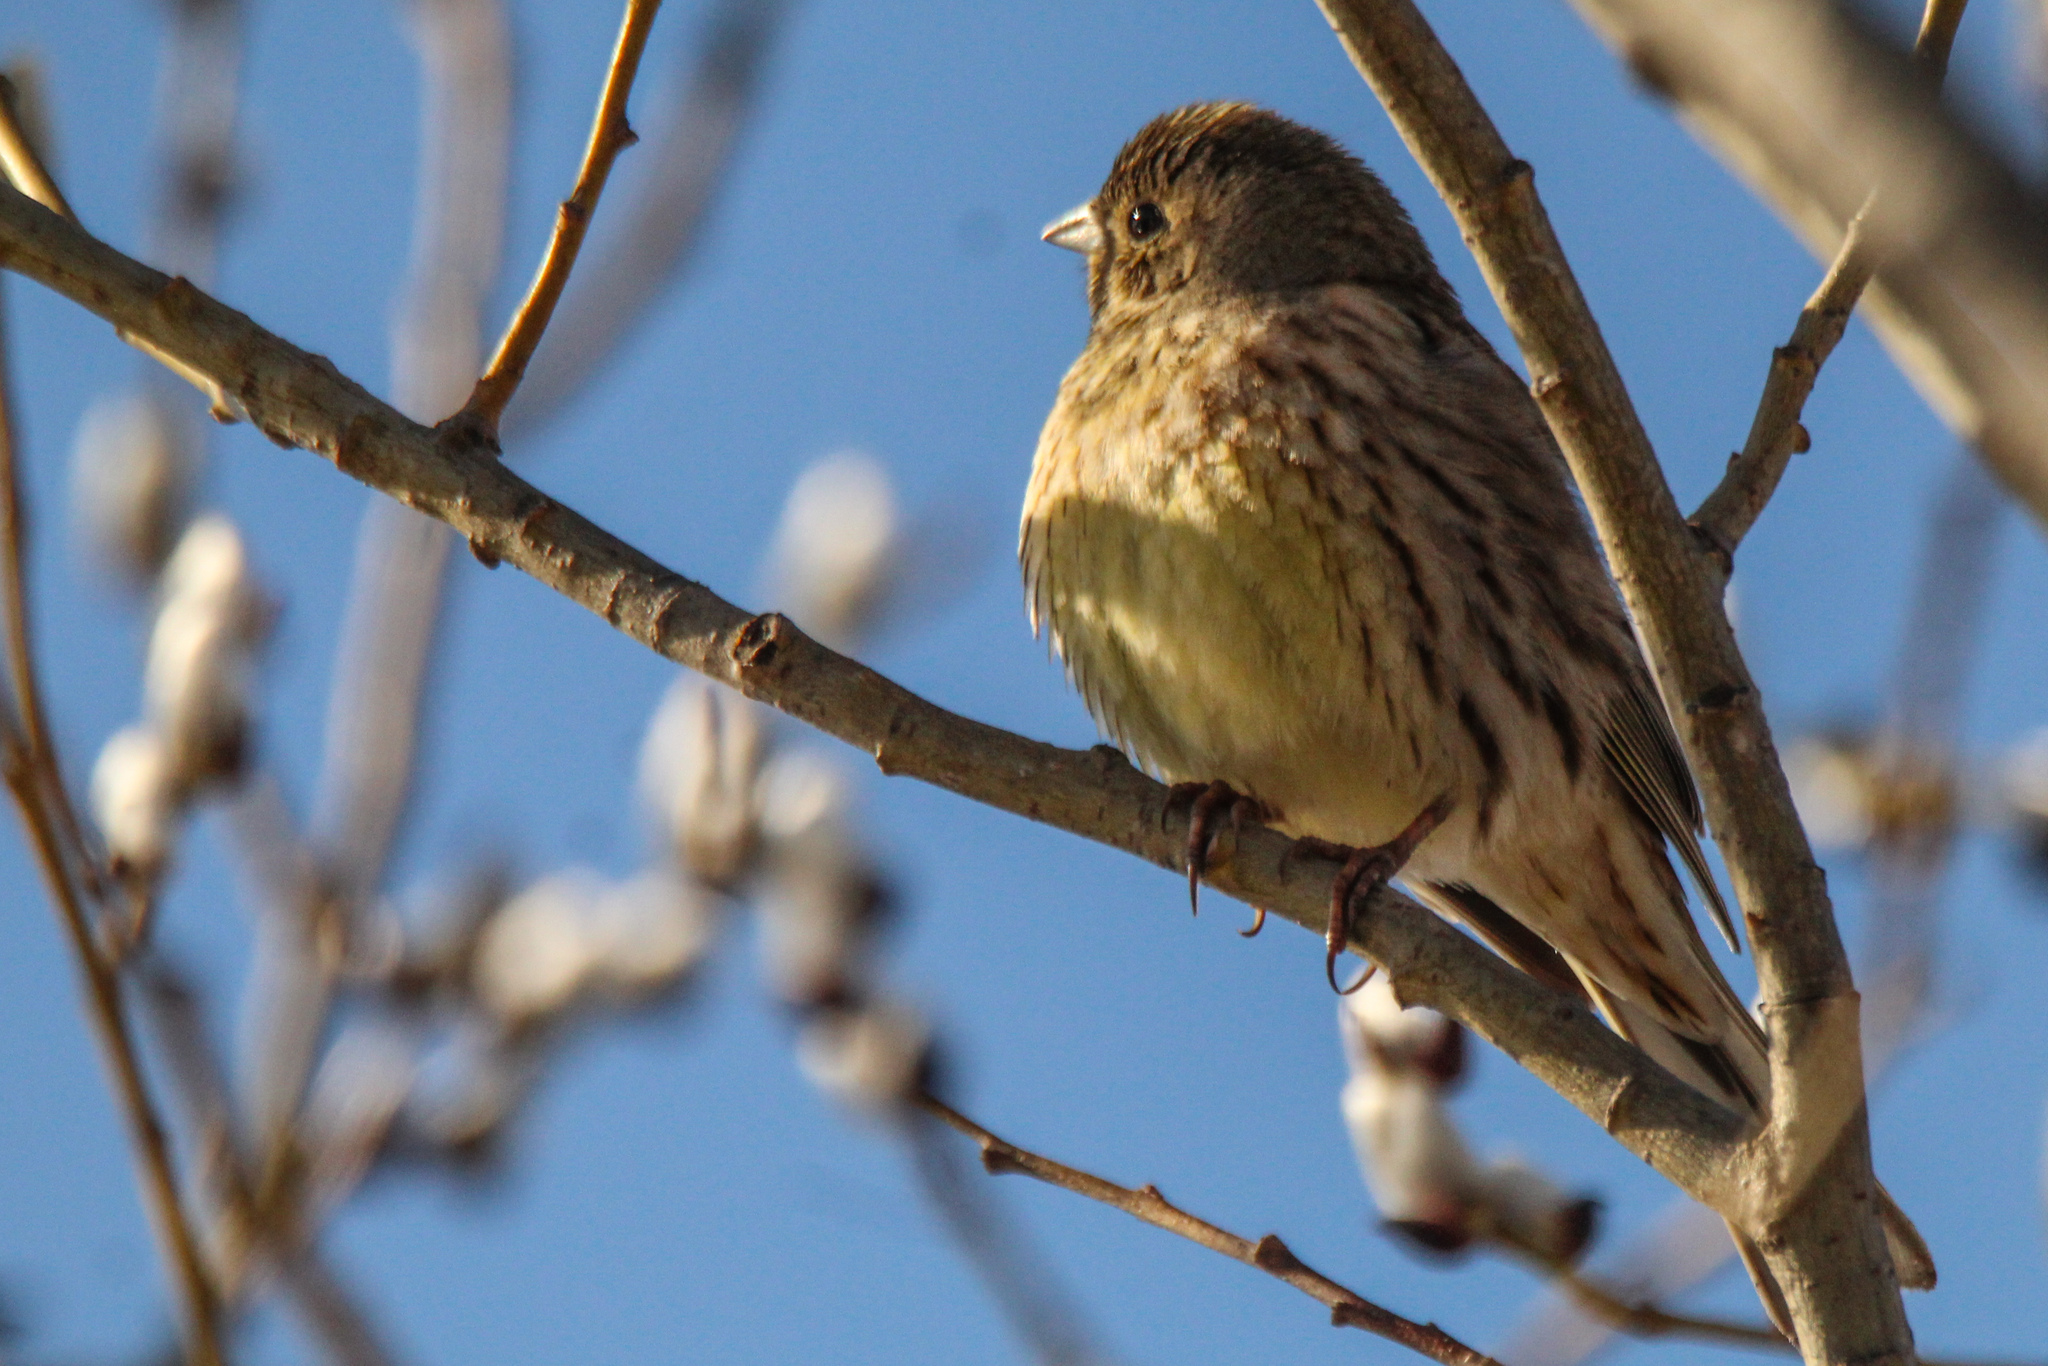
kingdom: Animalia
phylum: Chordata
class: Aves
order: Passeriformes
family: Emberizidae
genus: Emberiza
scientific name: Emberiza citrinella
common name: Yellowhammer
